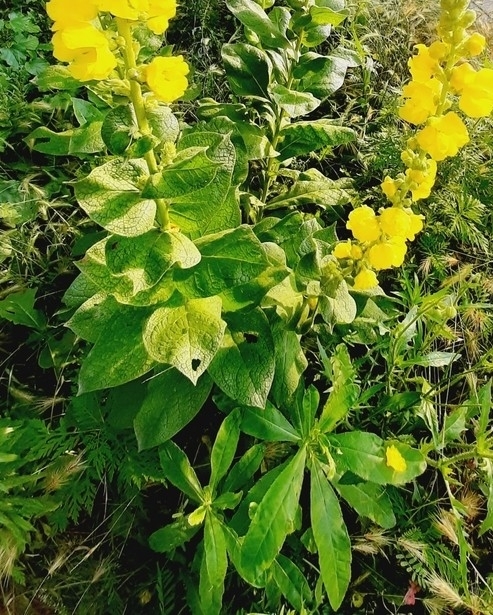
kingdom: Plantae
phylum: Tracheophyta
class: Magnoliopsida
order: Lamiales
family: Scrophulariaceae
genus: Verbascum
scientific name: Verbascum phlomoides
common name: Orange mullein
